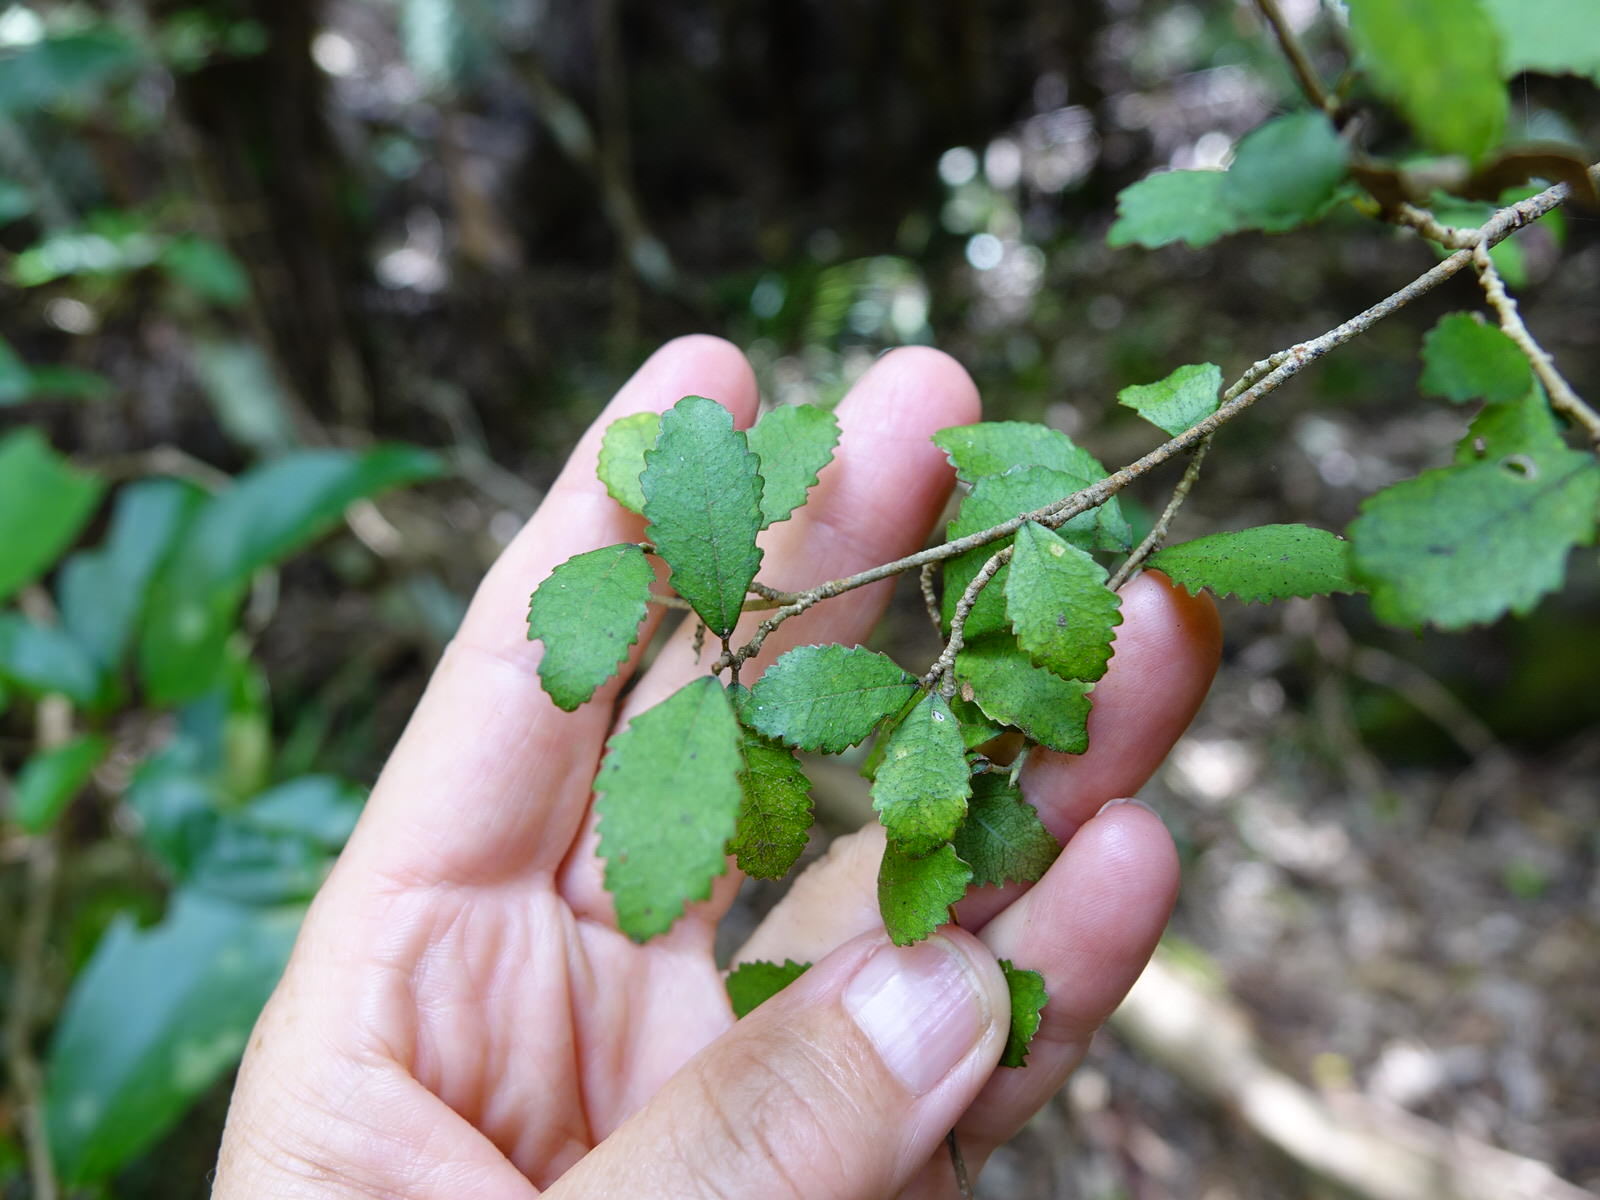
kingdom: Plantae
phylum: Tracheophyta
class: Magnoliopsida
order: Rosales
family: Moraceae
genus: Paratrophis
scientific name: Paratrophis microphylla
